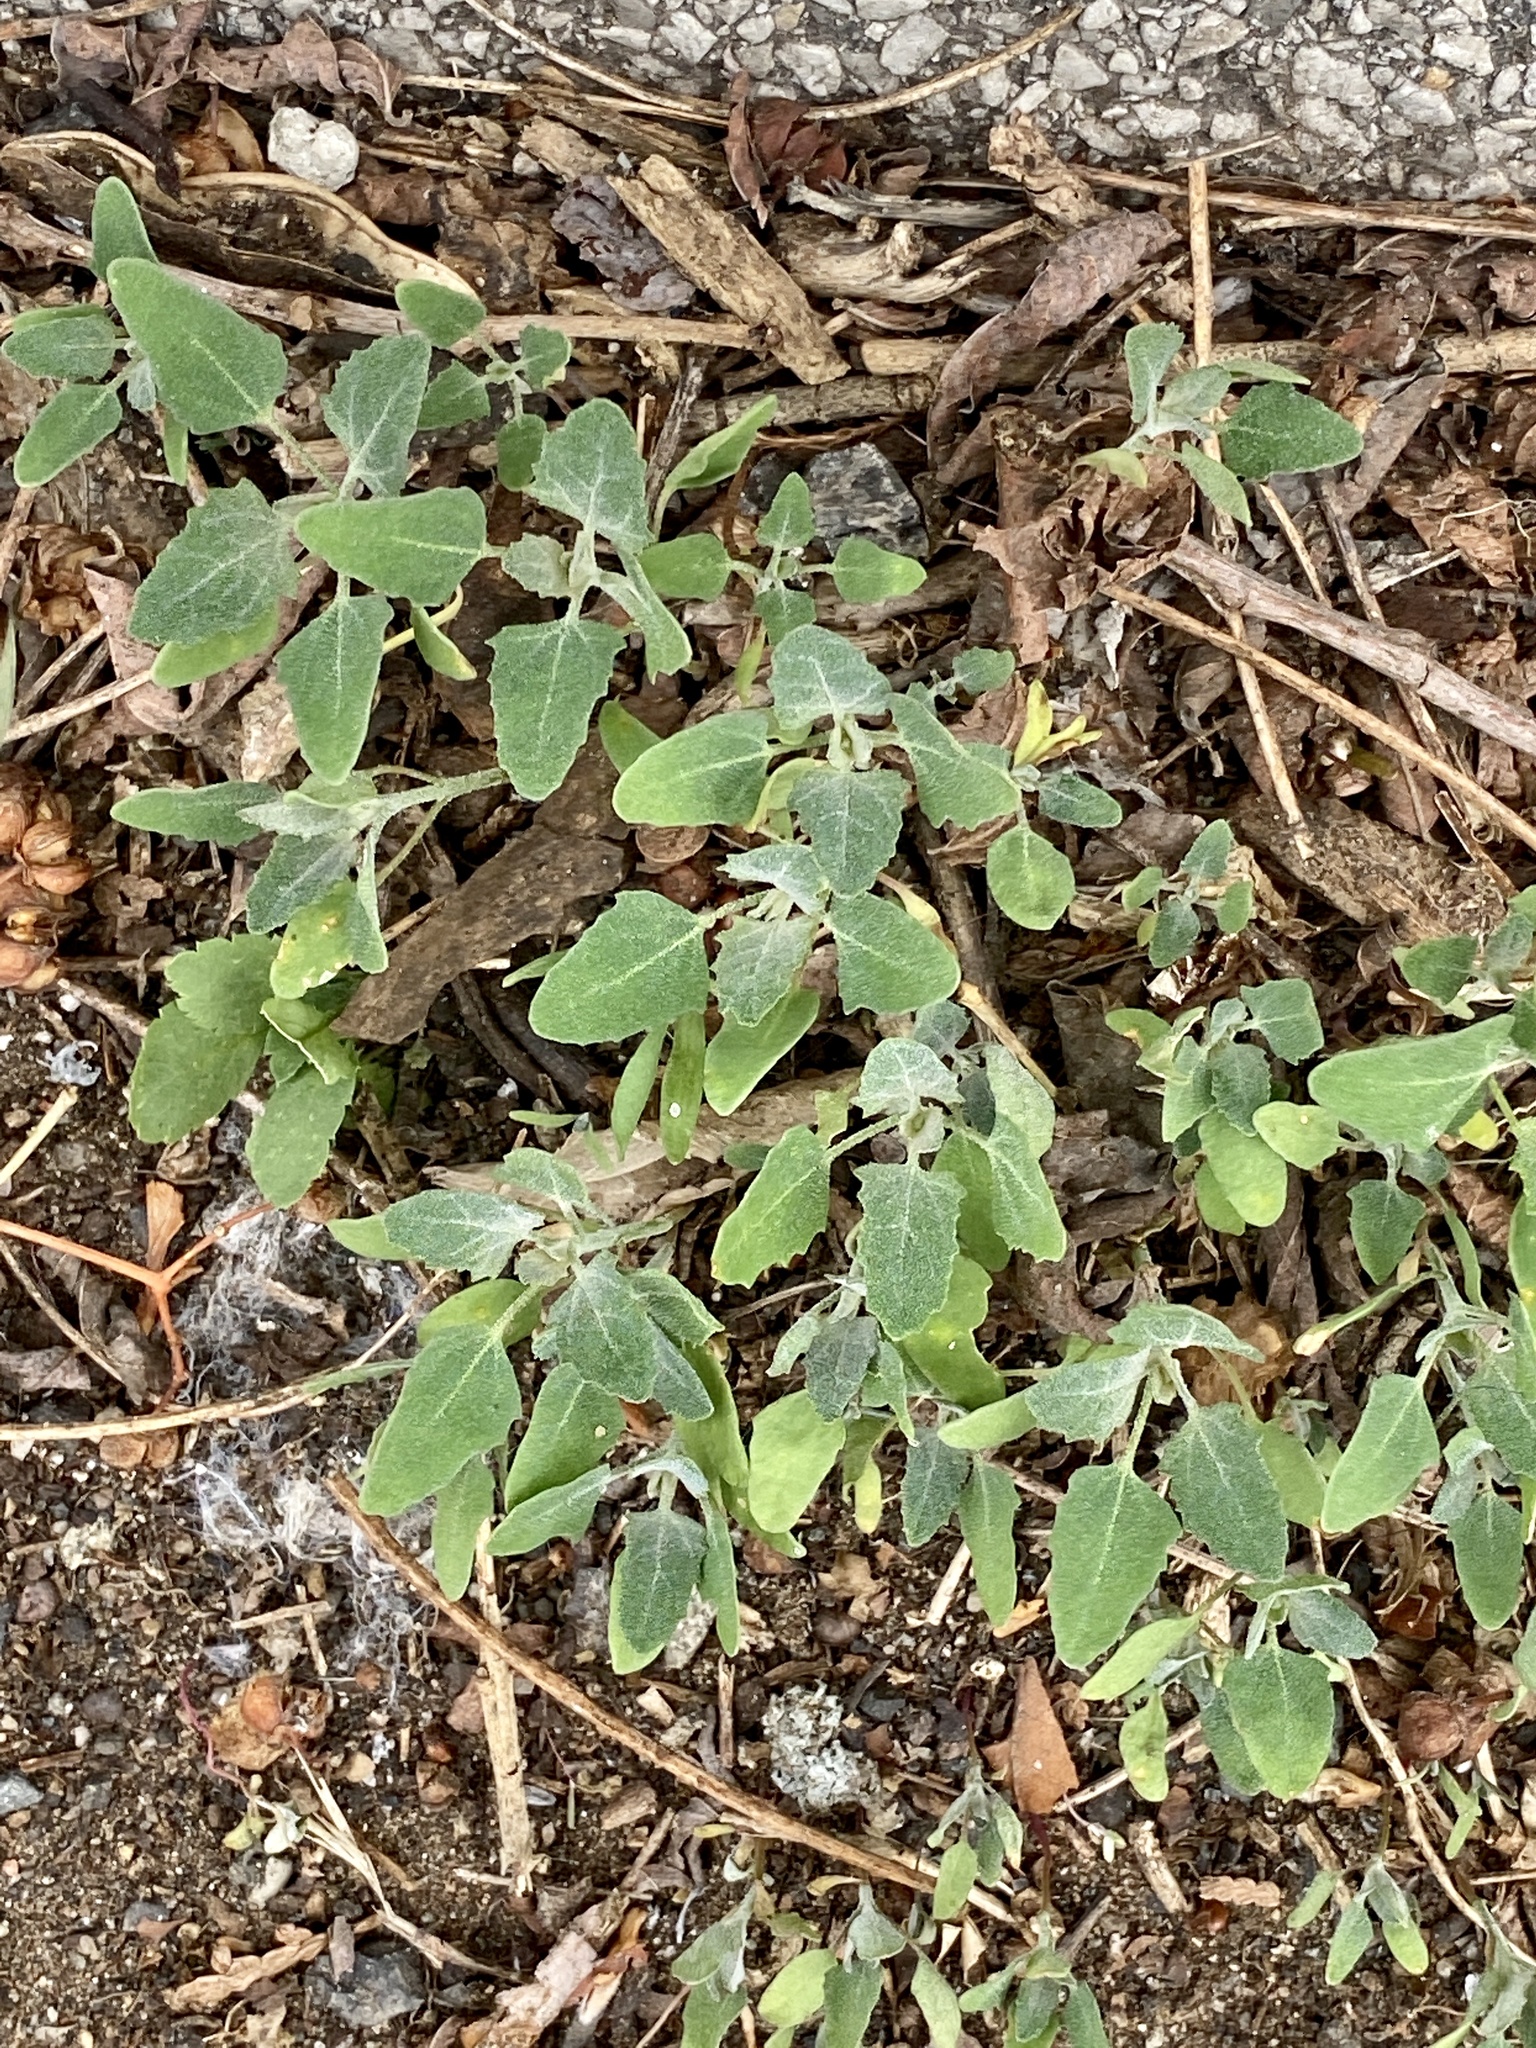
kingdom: Plantae
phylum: Tracheophyta
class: Magnoliopsida
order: Caryophyllales
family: Amaranthaceae
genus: Chenopodium
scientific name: Chenopodium album
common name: Fat-hen
